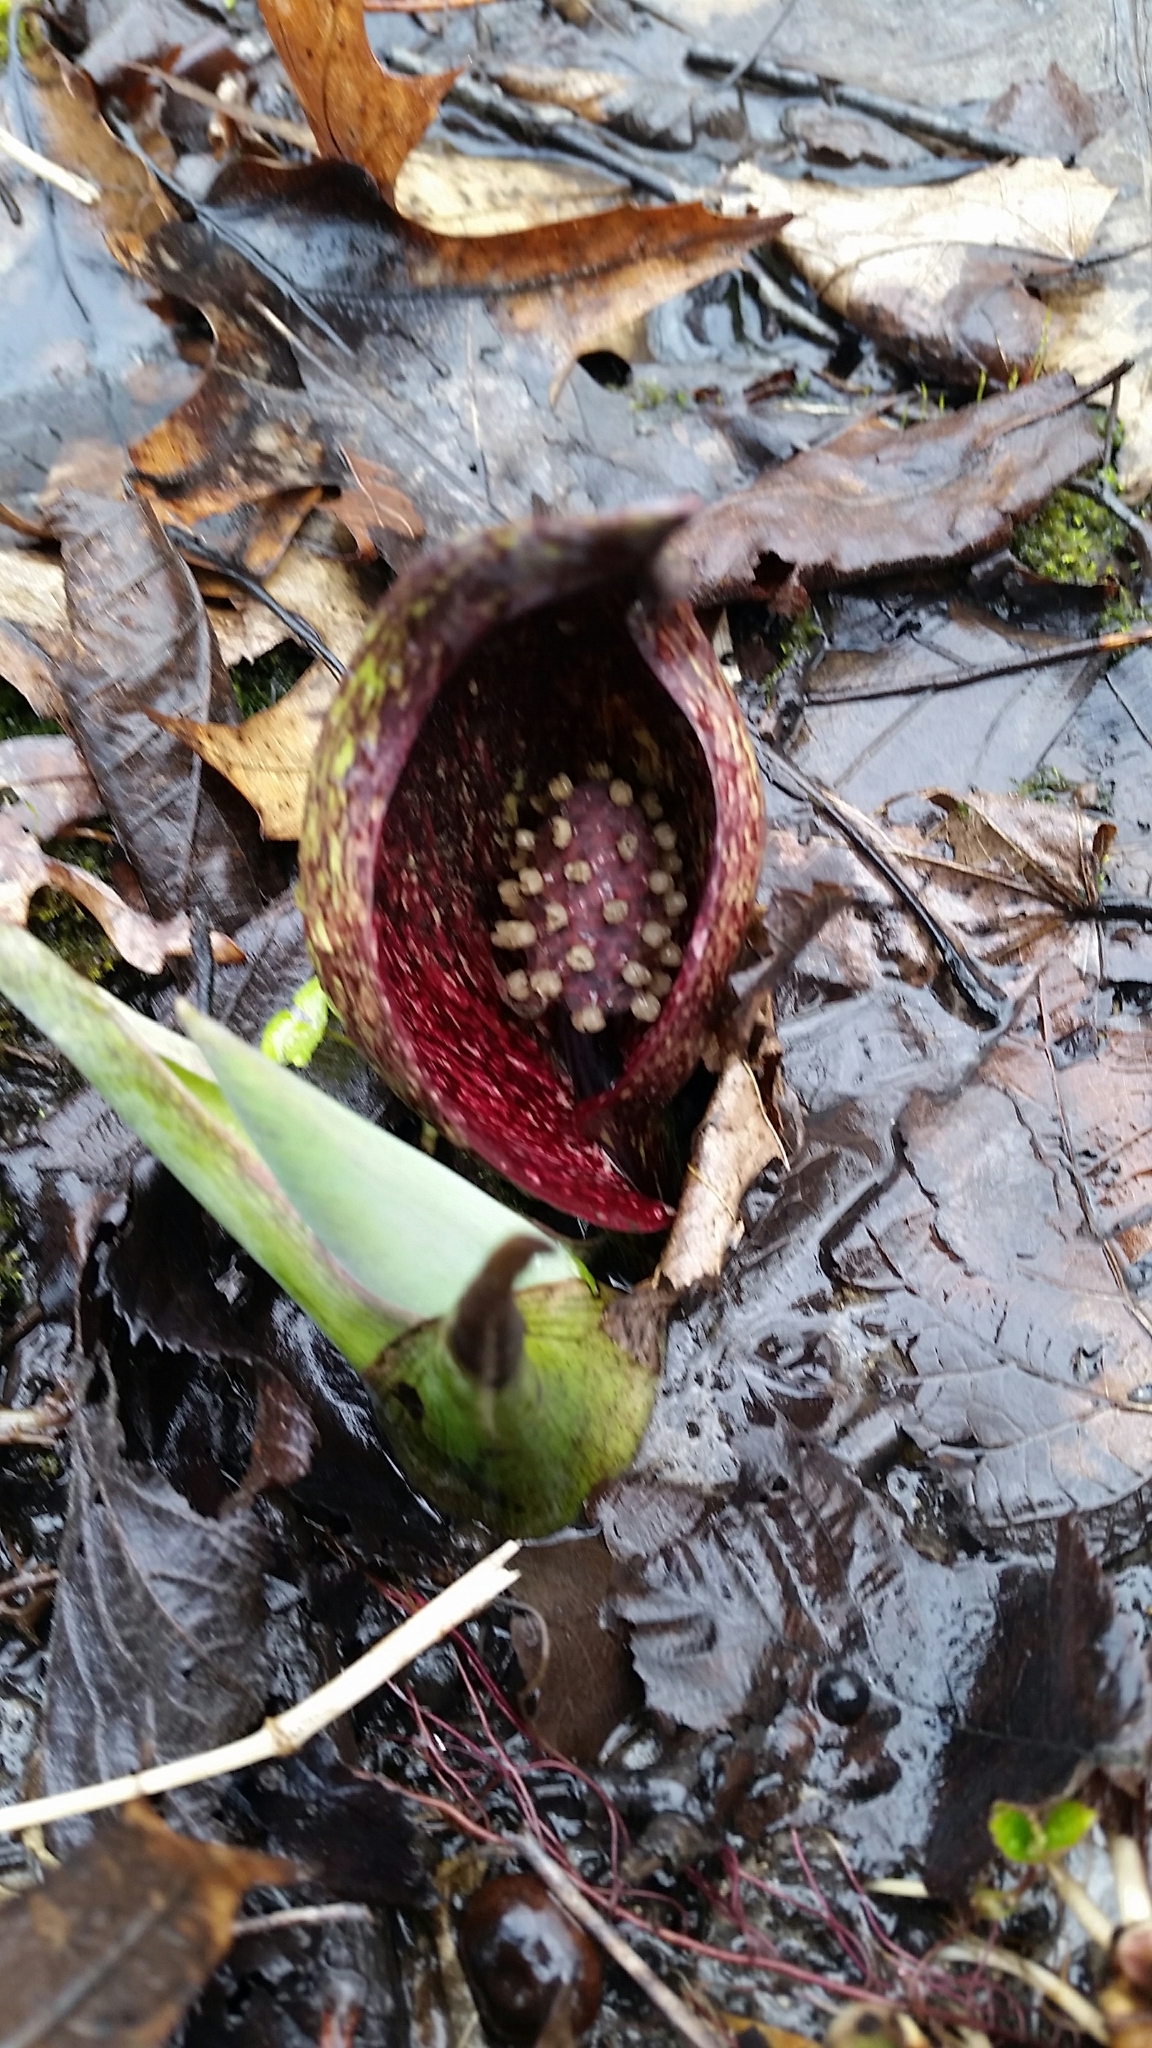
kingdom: Plantae
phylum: Tracheophyta
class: Liliopsida
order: Alismatales
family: Araceae
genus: Symplocarpus
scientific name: Symplocarpus foetidus
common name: Eastern skunk cabbage
